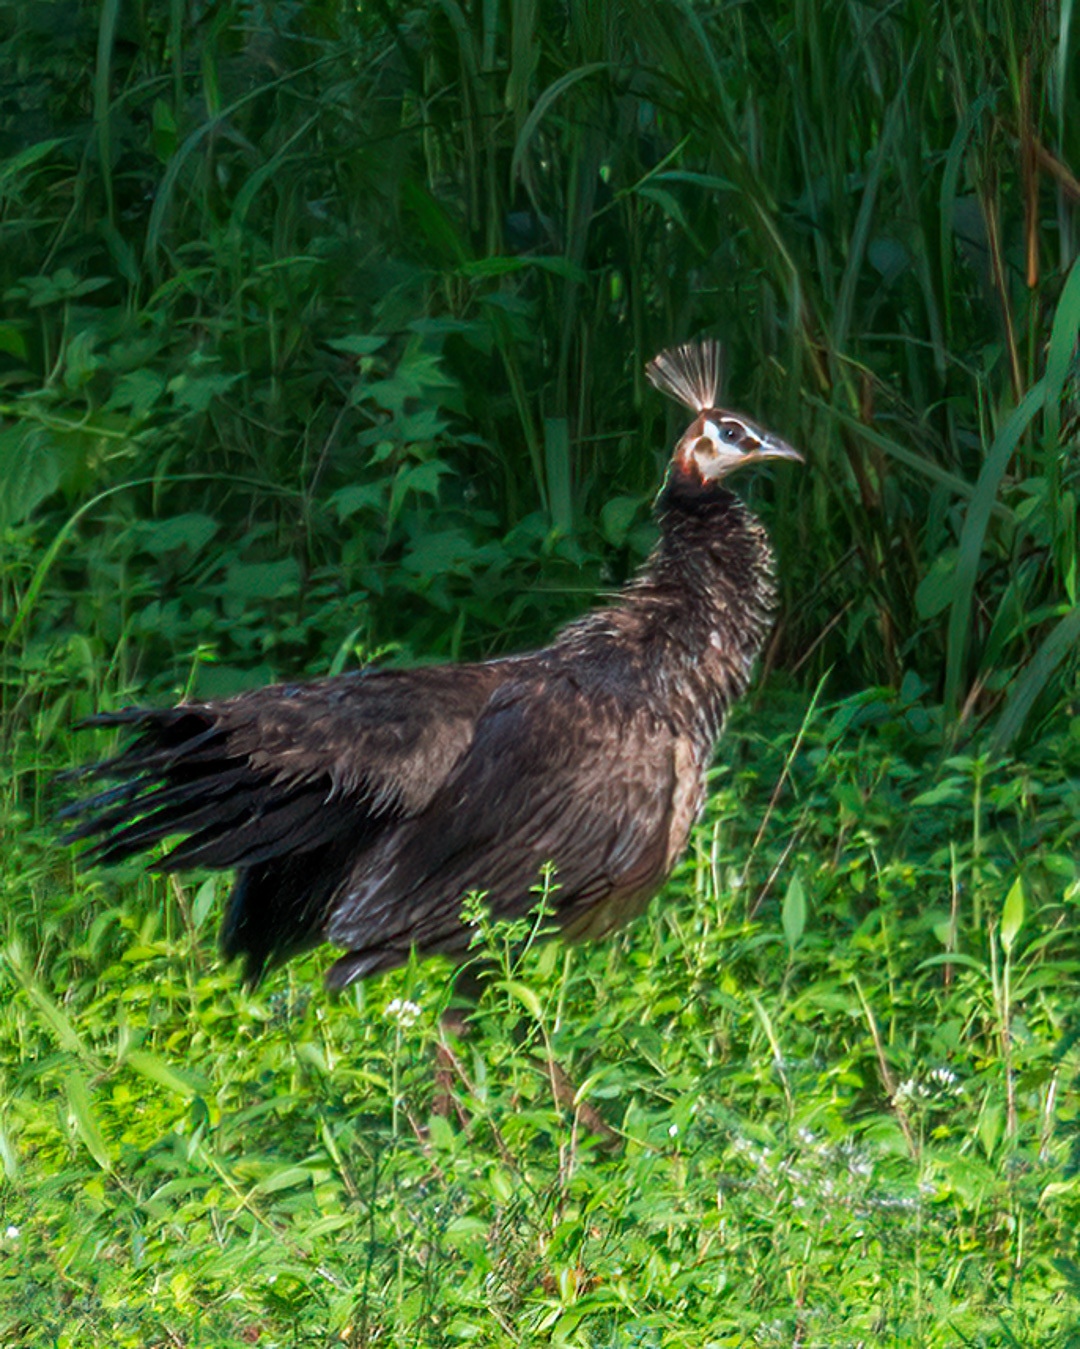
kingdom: Animalia
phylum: Chordata
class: Aves
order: Galliformes
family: Phasianidae
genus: Pavo
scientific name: Pavo cristatus
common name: Indian peafowl
